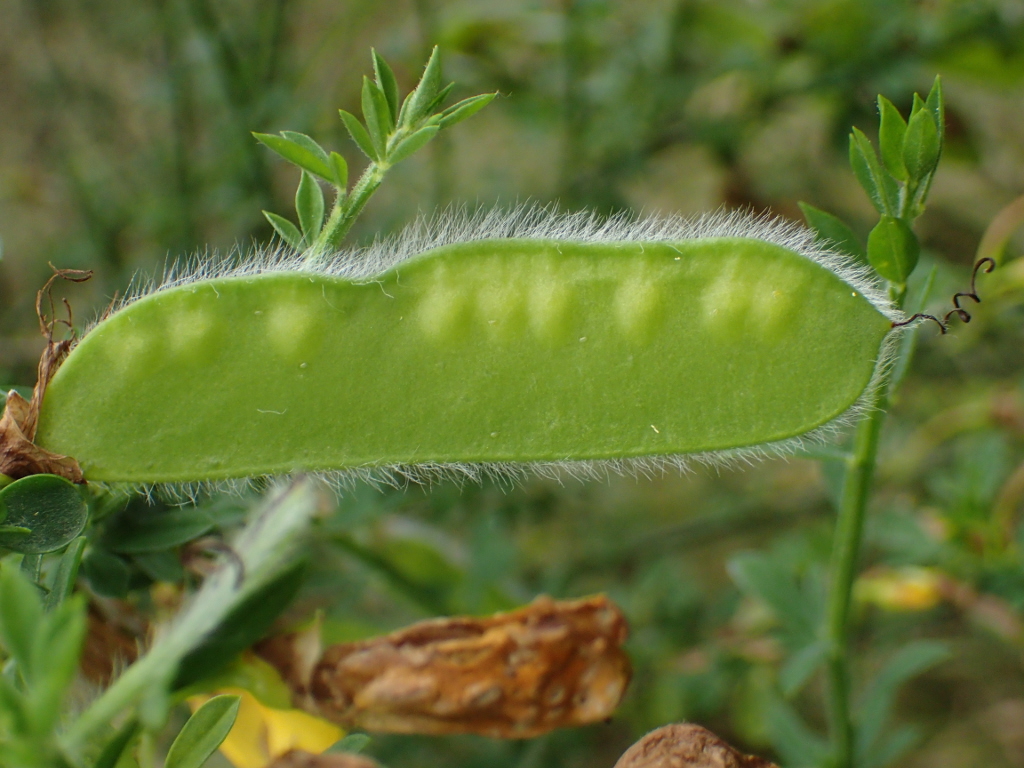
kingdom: Plantae
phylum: Tracheophyta
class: Magnoliopsida
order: Fabales
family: Fabaceae
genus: Cytisus
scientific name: Cytisus scoparius
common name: Scotch broom
